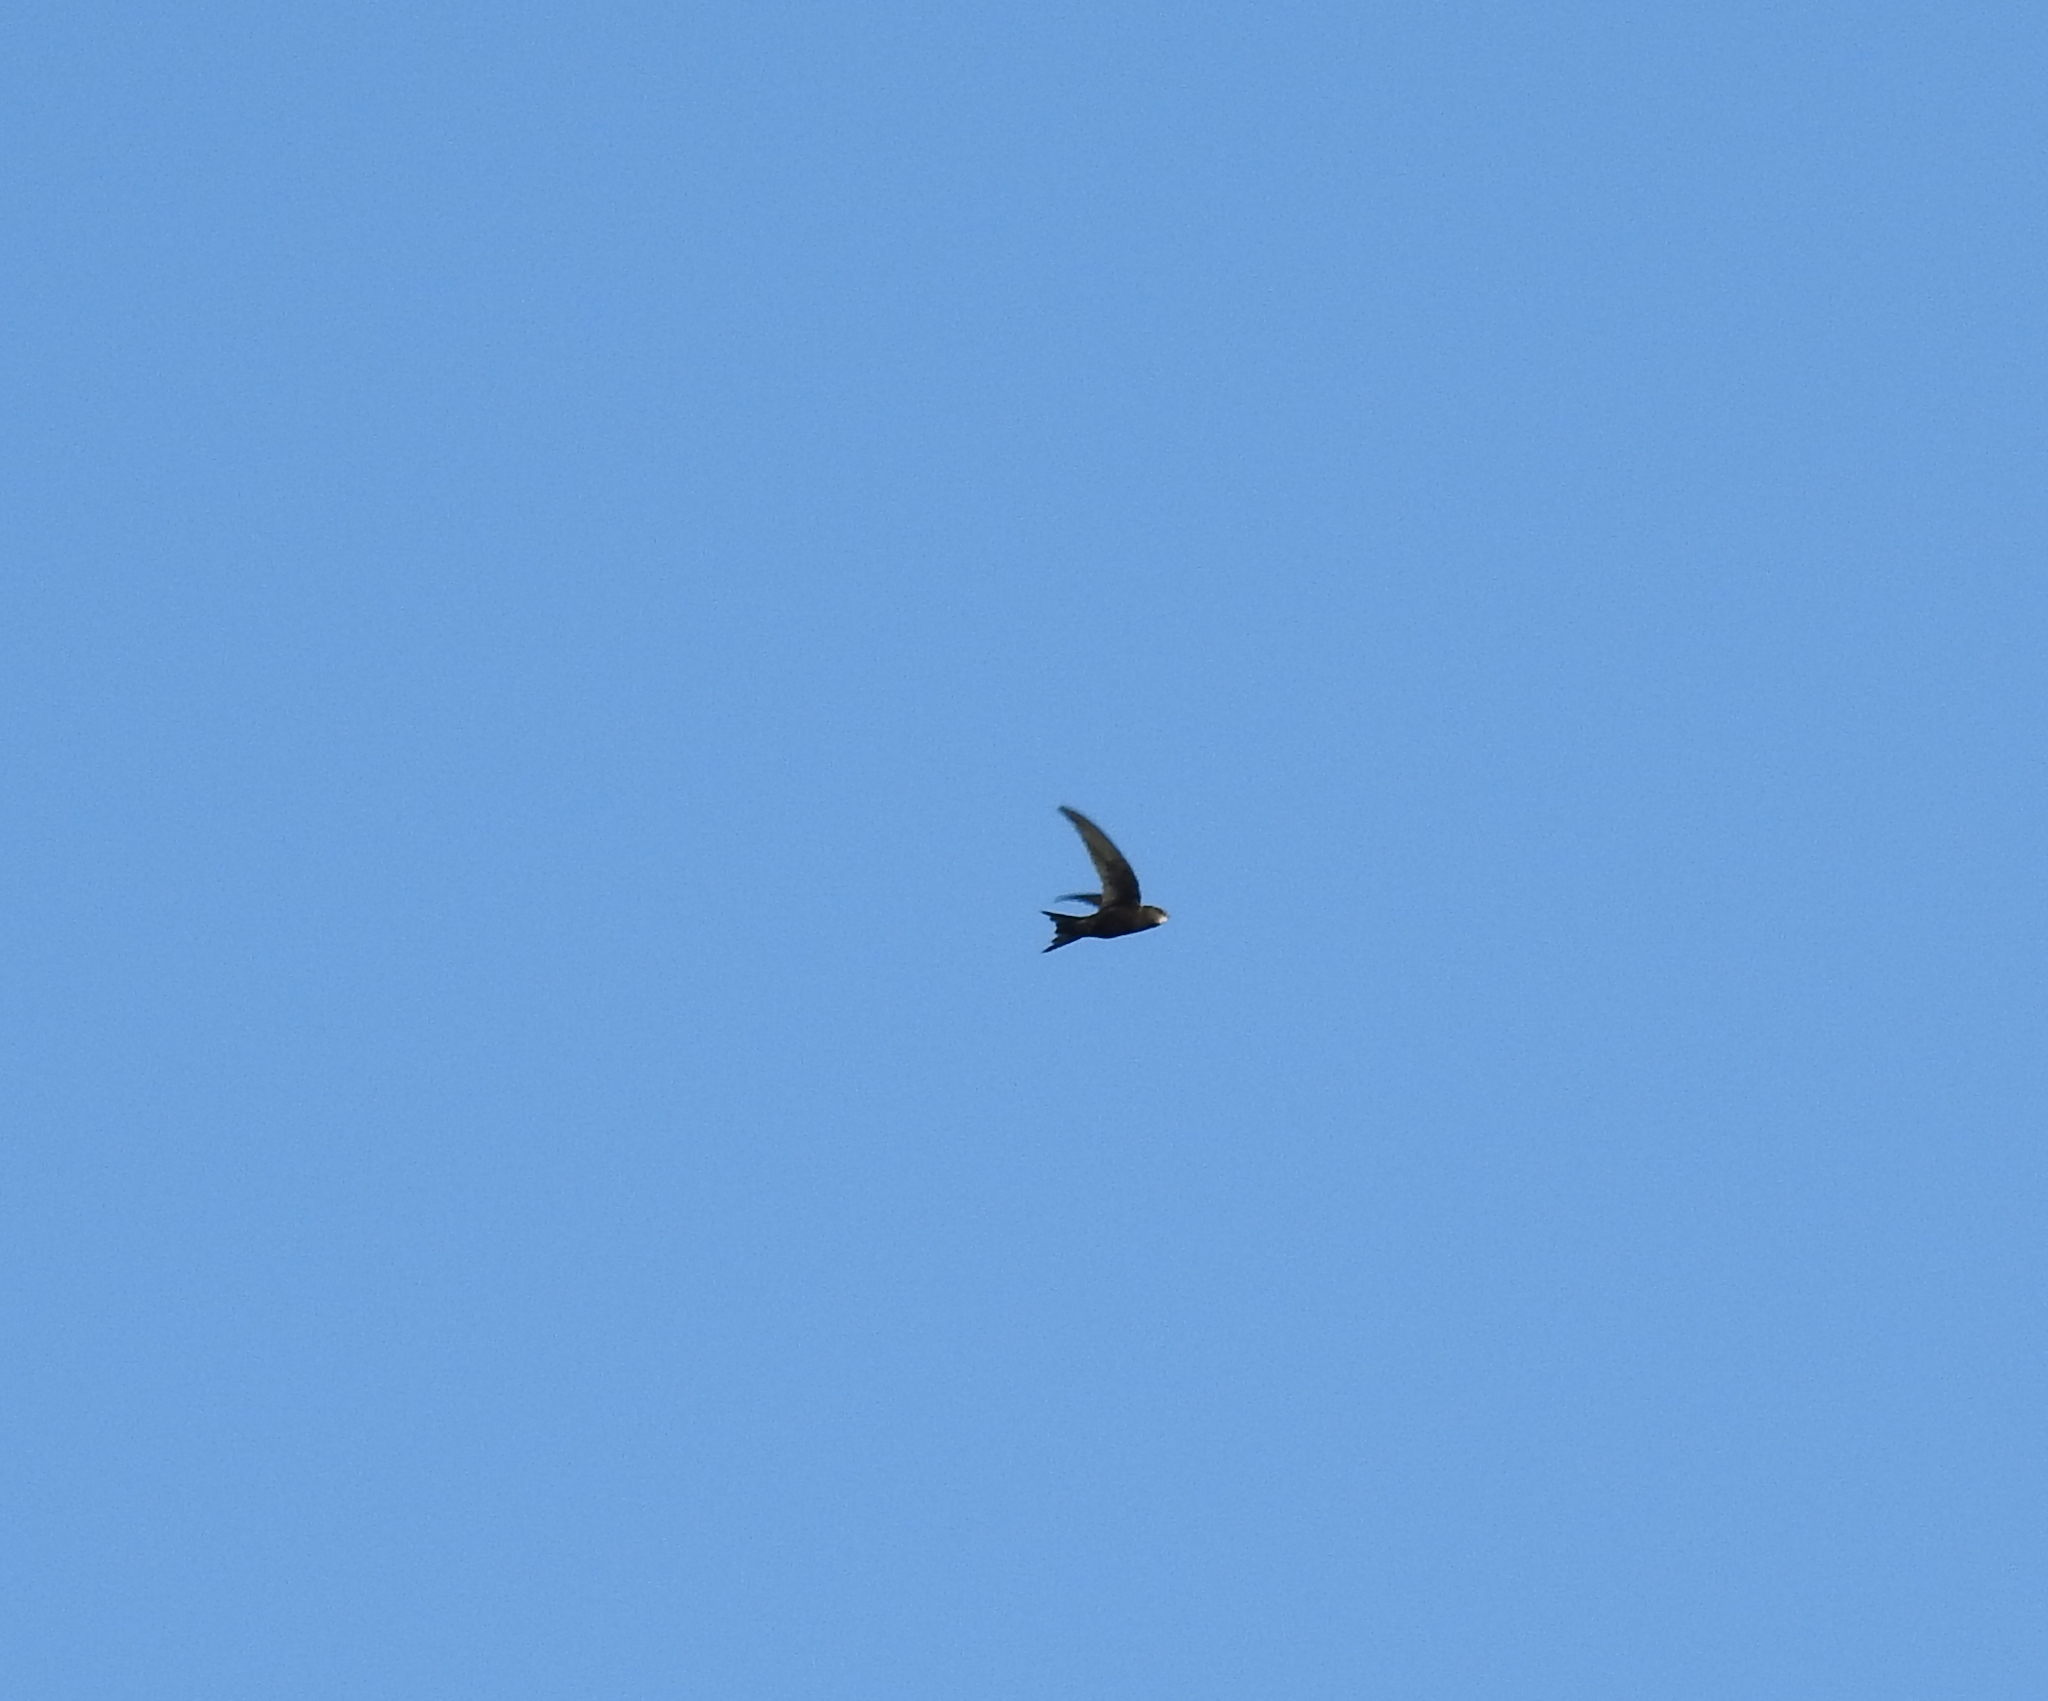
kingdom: Animalia
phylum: Chordata
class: Aves
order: Apodiformes
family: Apodidae
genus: Apus
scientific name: Apus apus
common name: Common swift
